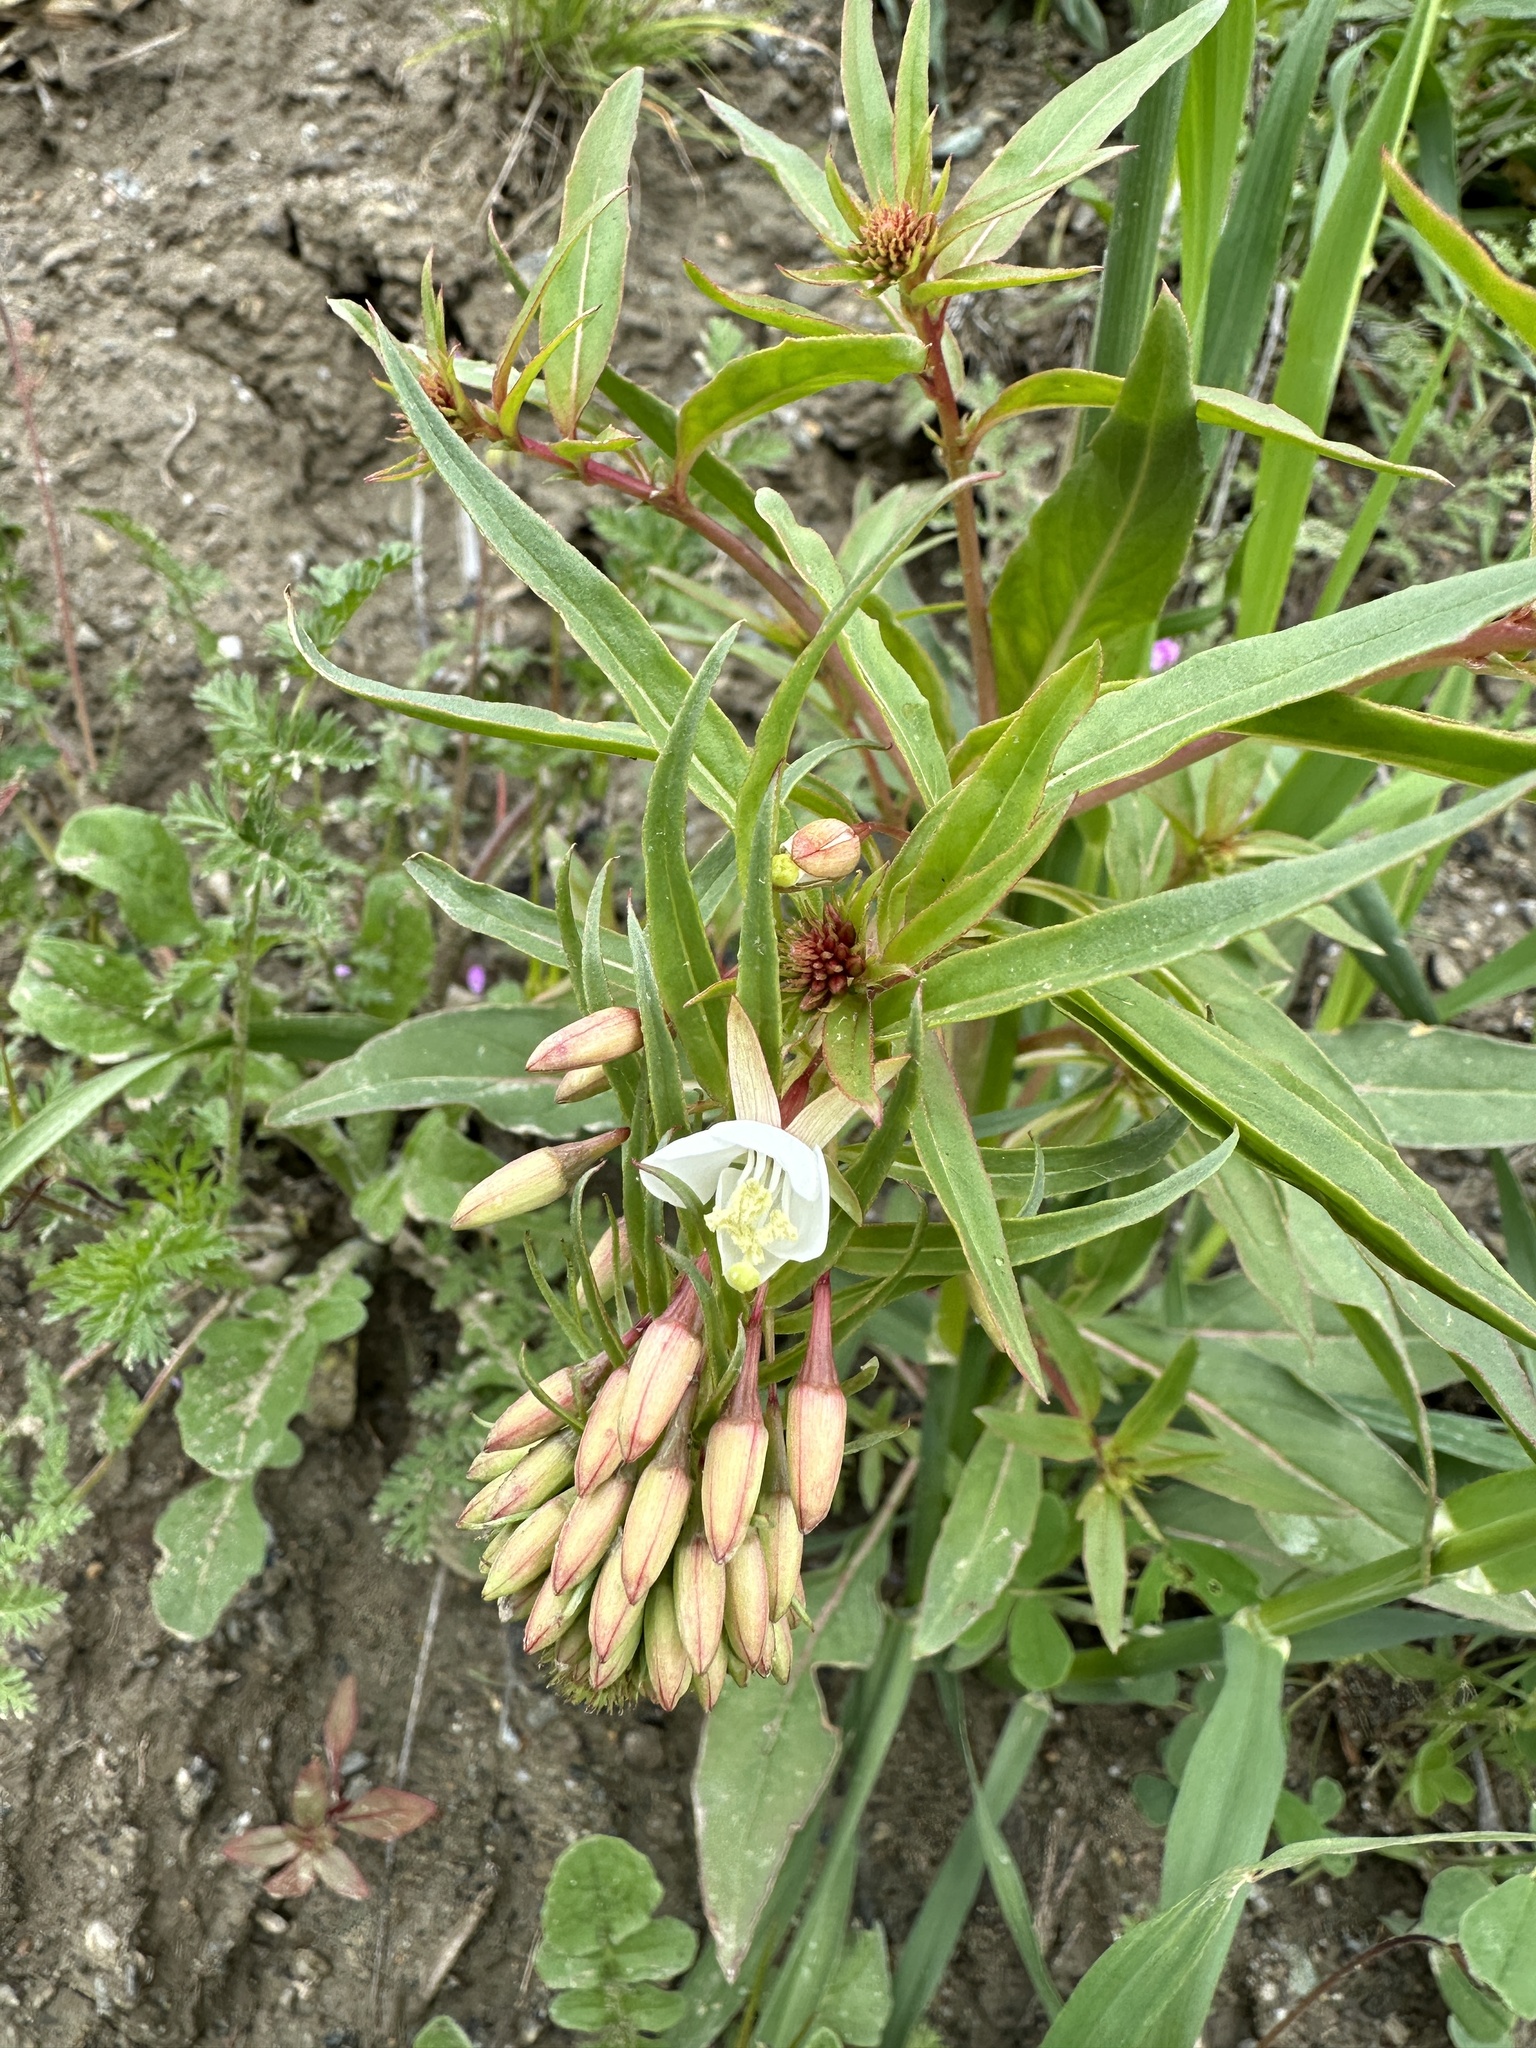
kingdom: Plantae
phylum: Tracheophyta
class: Magnoliopsida
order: Myrtales
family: Onagraceae
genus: Eremothera
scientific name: Eremothera boothii
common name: Booth's evening primrose
